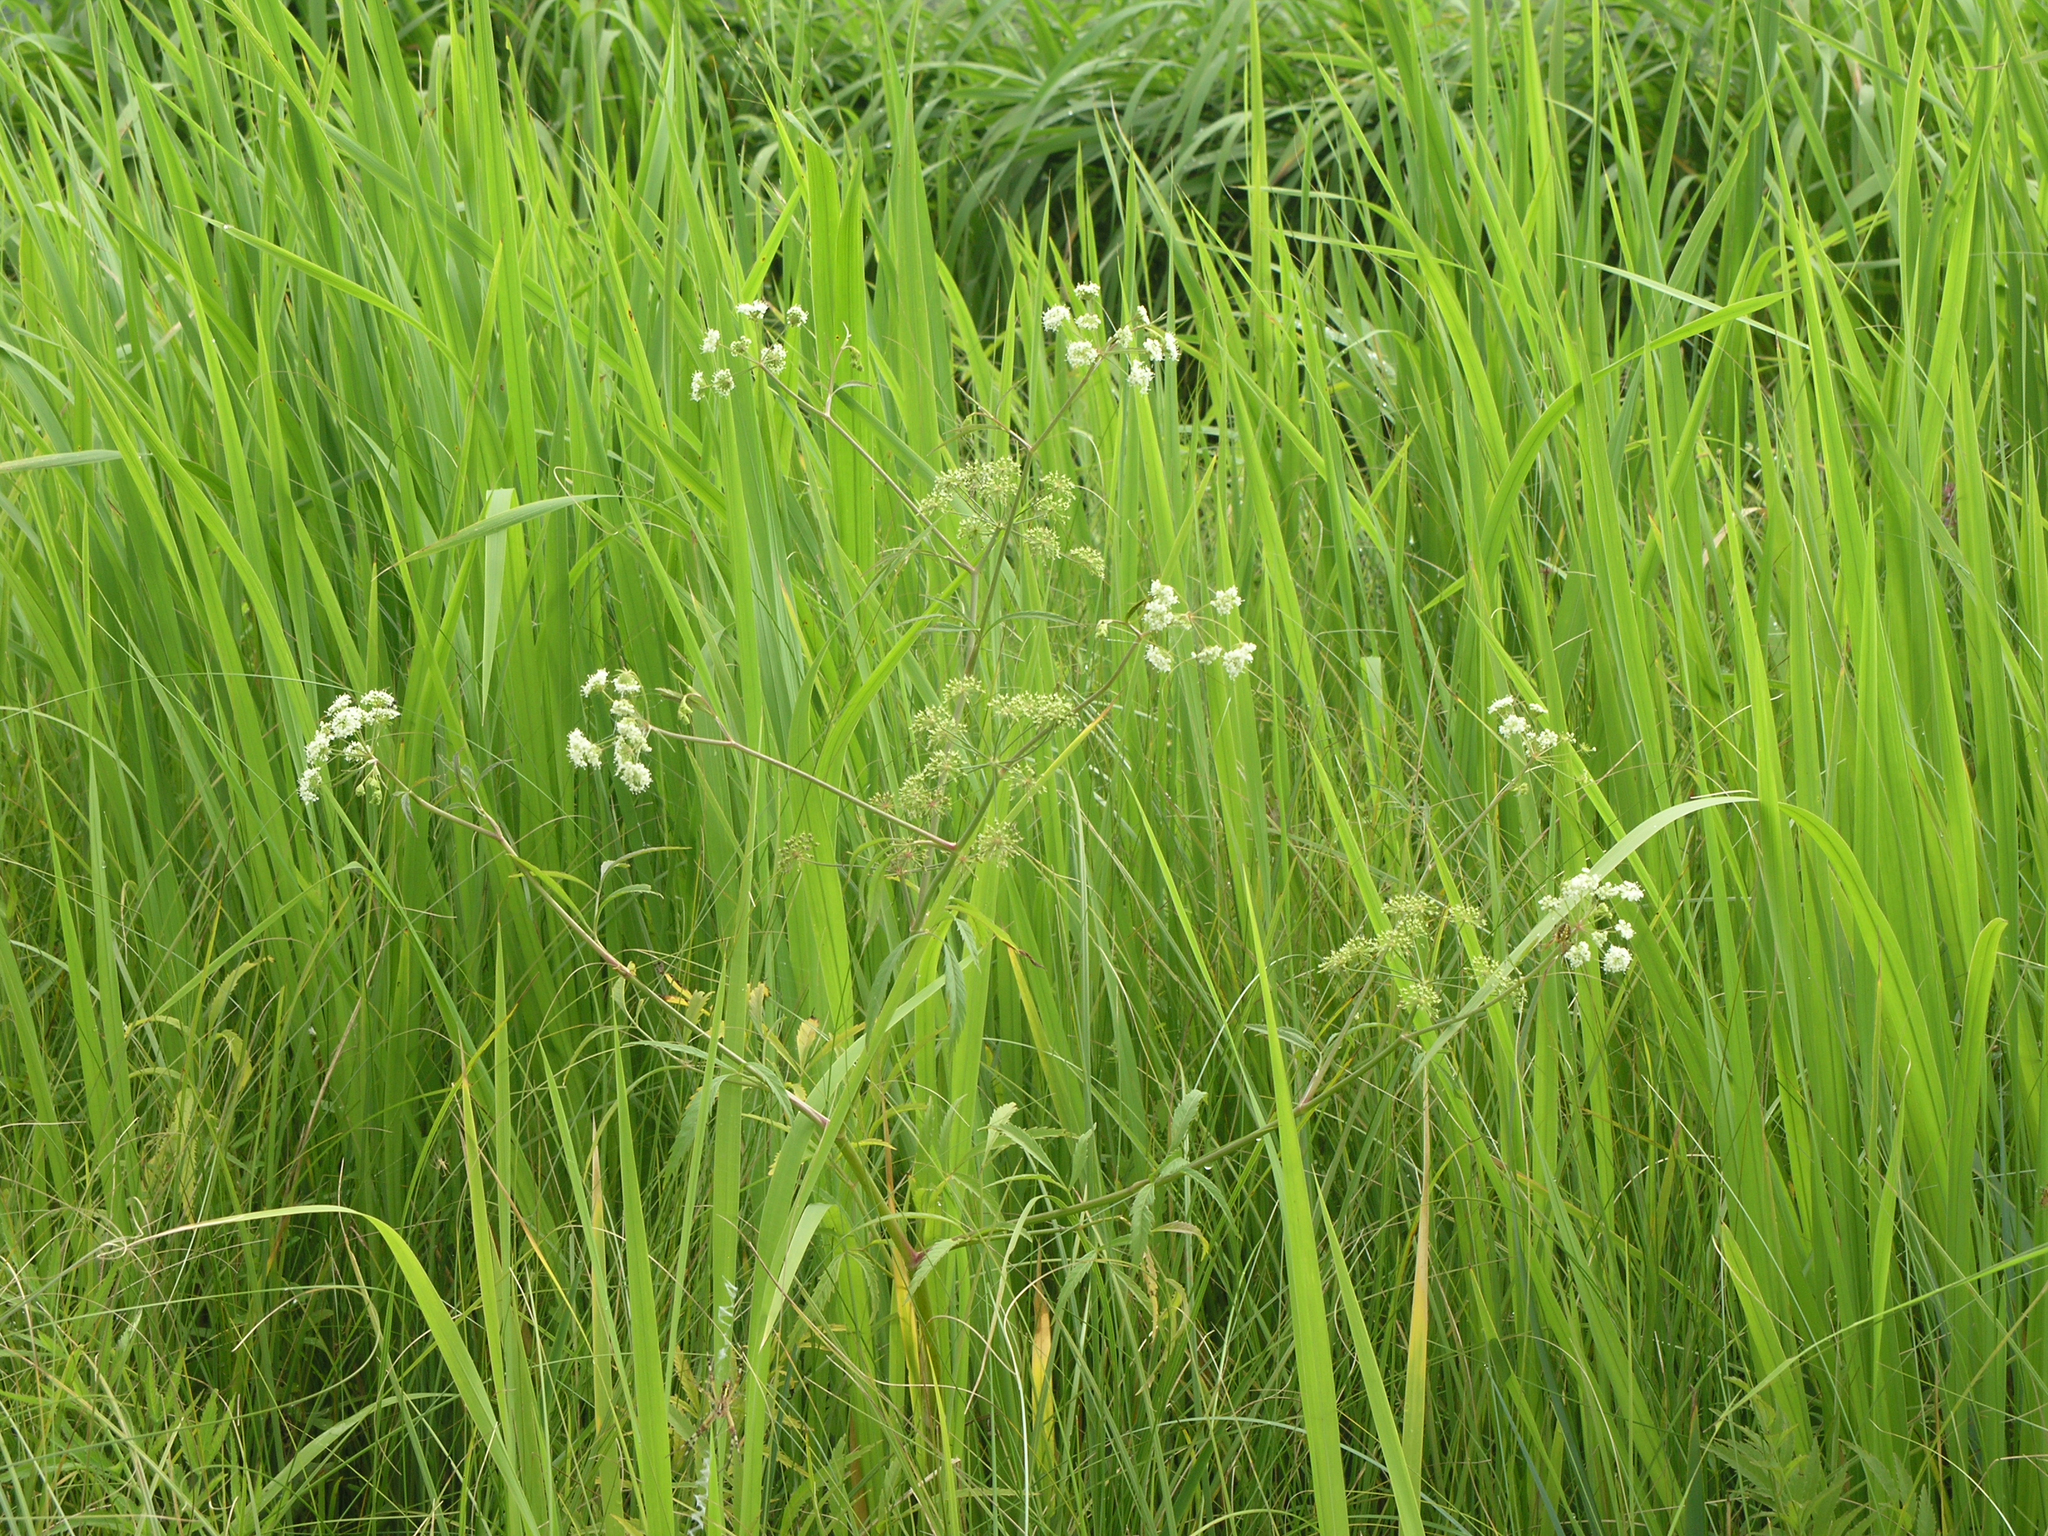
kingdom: Plantae
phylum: Tracheophyta
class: Magnoliopsida
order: Apiales
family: Apiaceae
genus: Cicuta
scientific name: Cicuta virosa
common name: Cowbane
